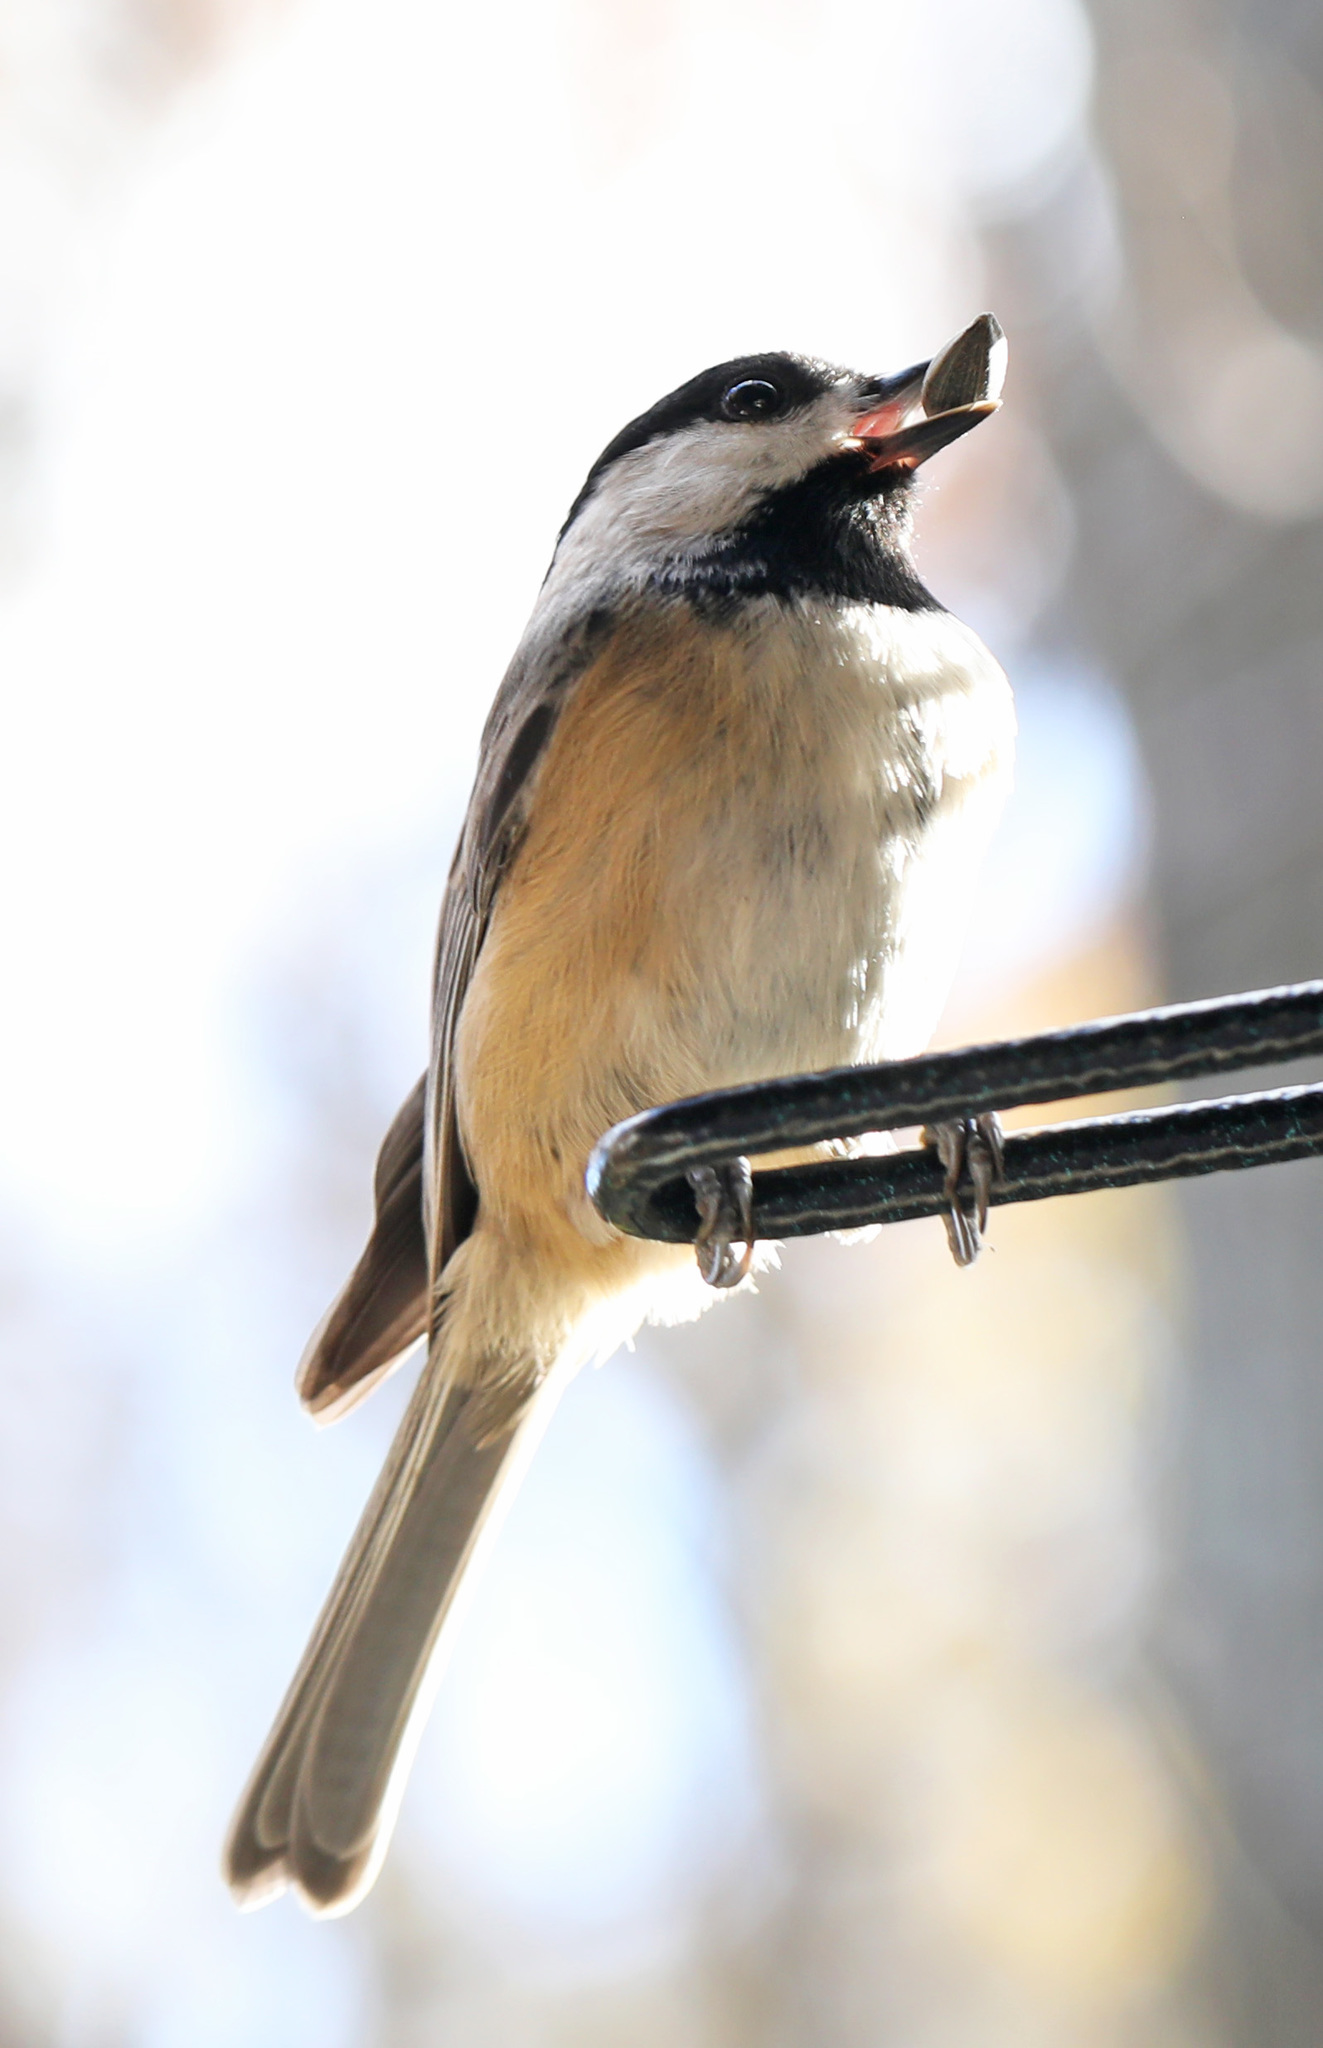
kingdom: Animalia
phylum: Chordata
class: Aves
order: Passeriformes
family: Paridae
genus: Poecile
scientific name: Poecile carolinensis
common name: Carolina chickadee
